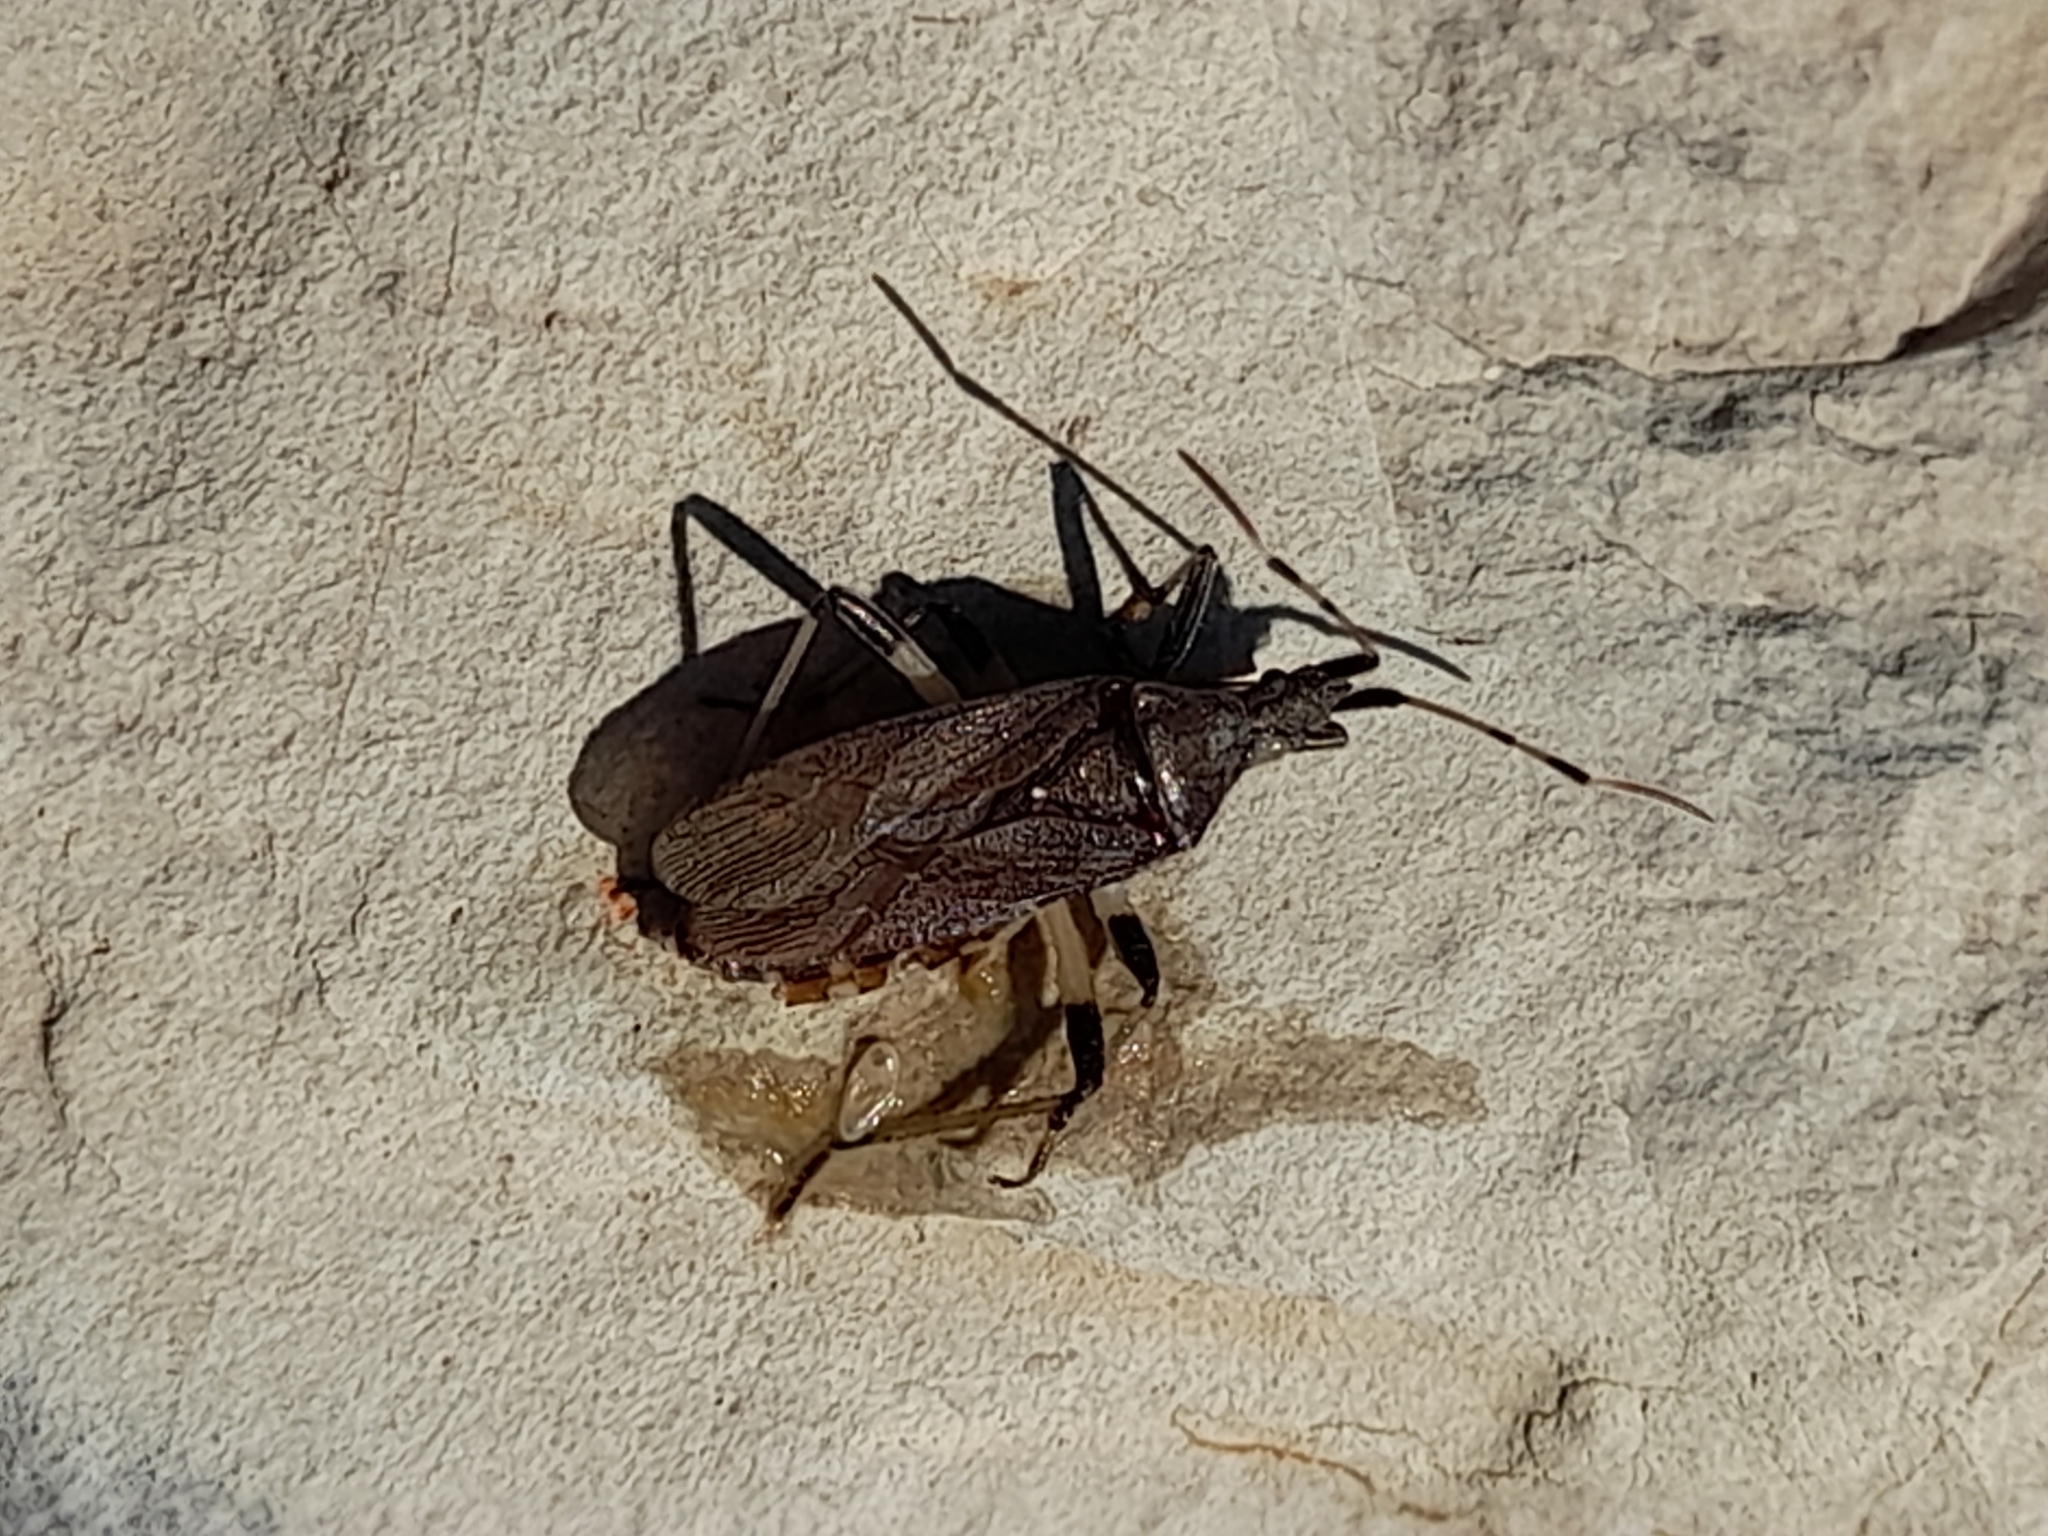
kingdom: Animalia
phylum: Arthropoda
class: Insecta
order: Hemiptera
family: Stenocephalidae
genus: Dicranocephalus
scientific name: Dicranocephalus albipes
